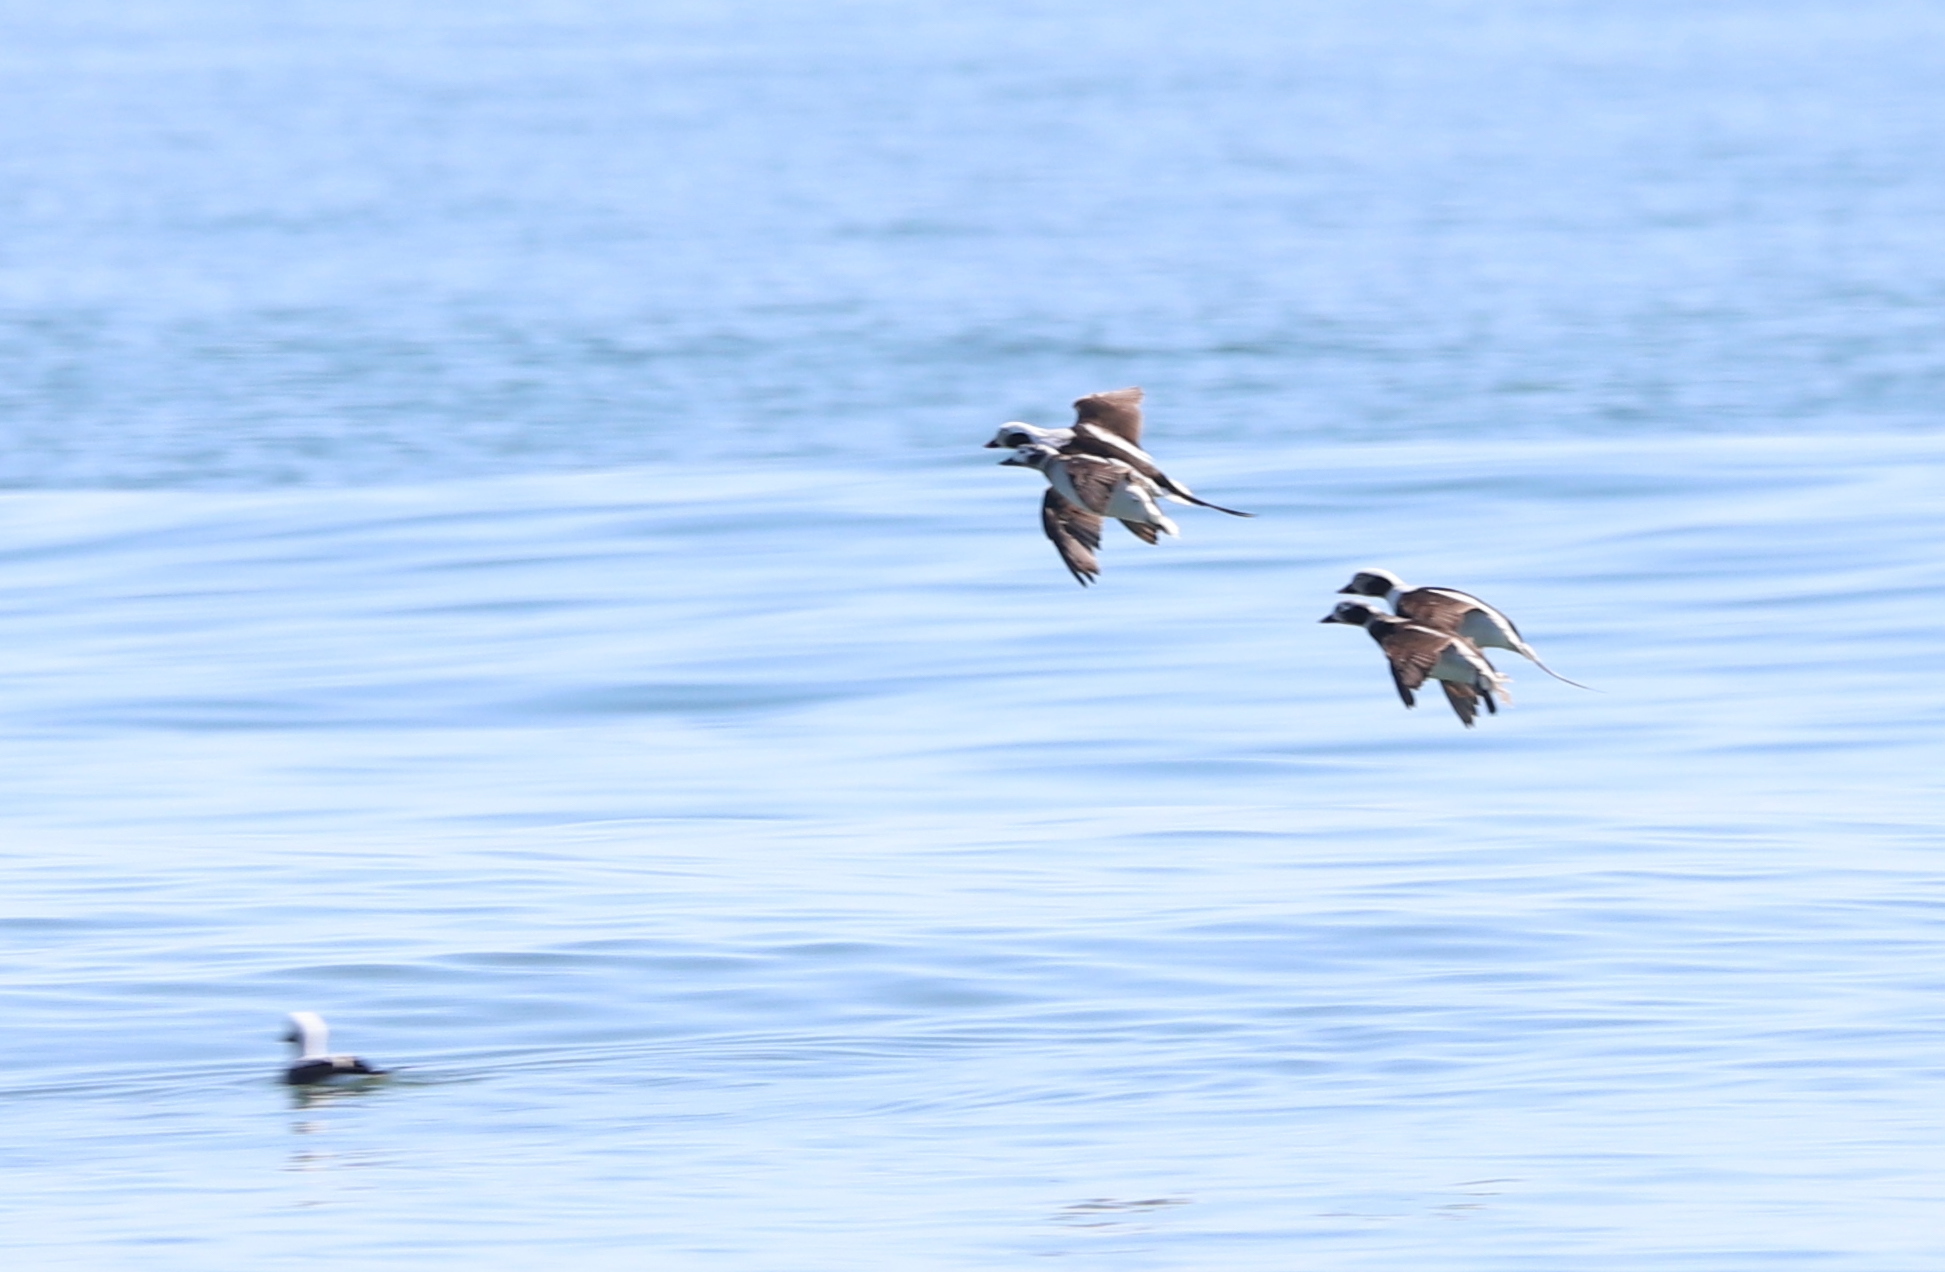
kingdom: Animalia
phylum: Chordata
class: Aves
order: Anseriformes
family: Anatidae
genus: Clangula
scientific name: Clangula hyemalis
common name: Long-tailed duck
